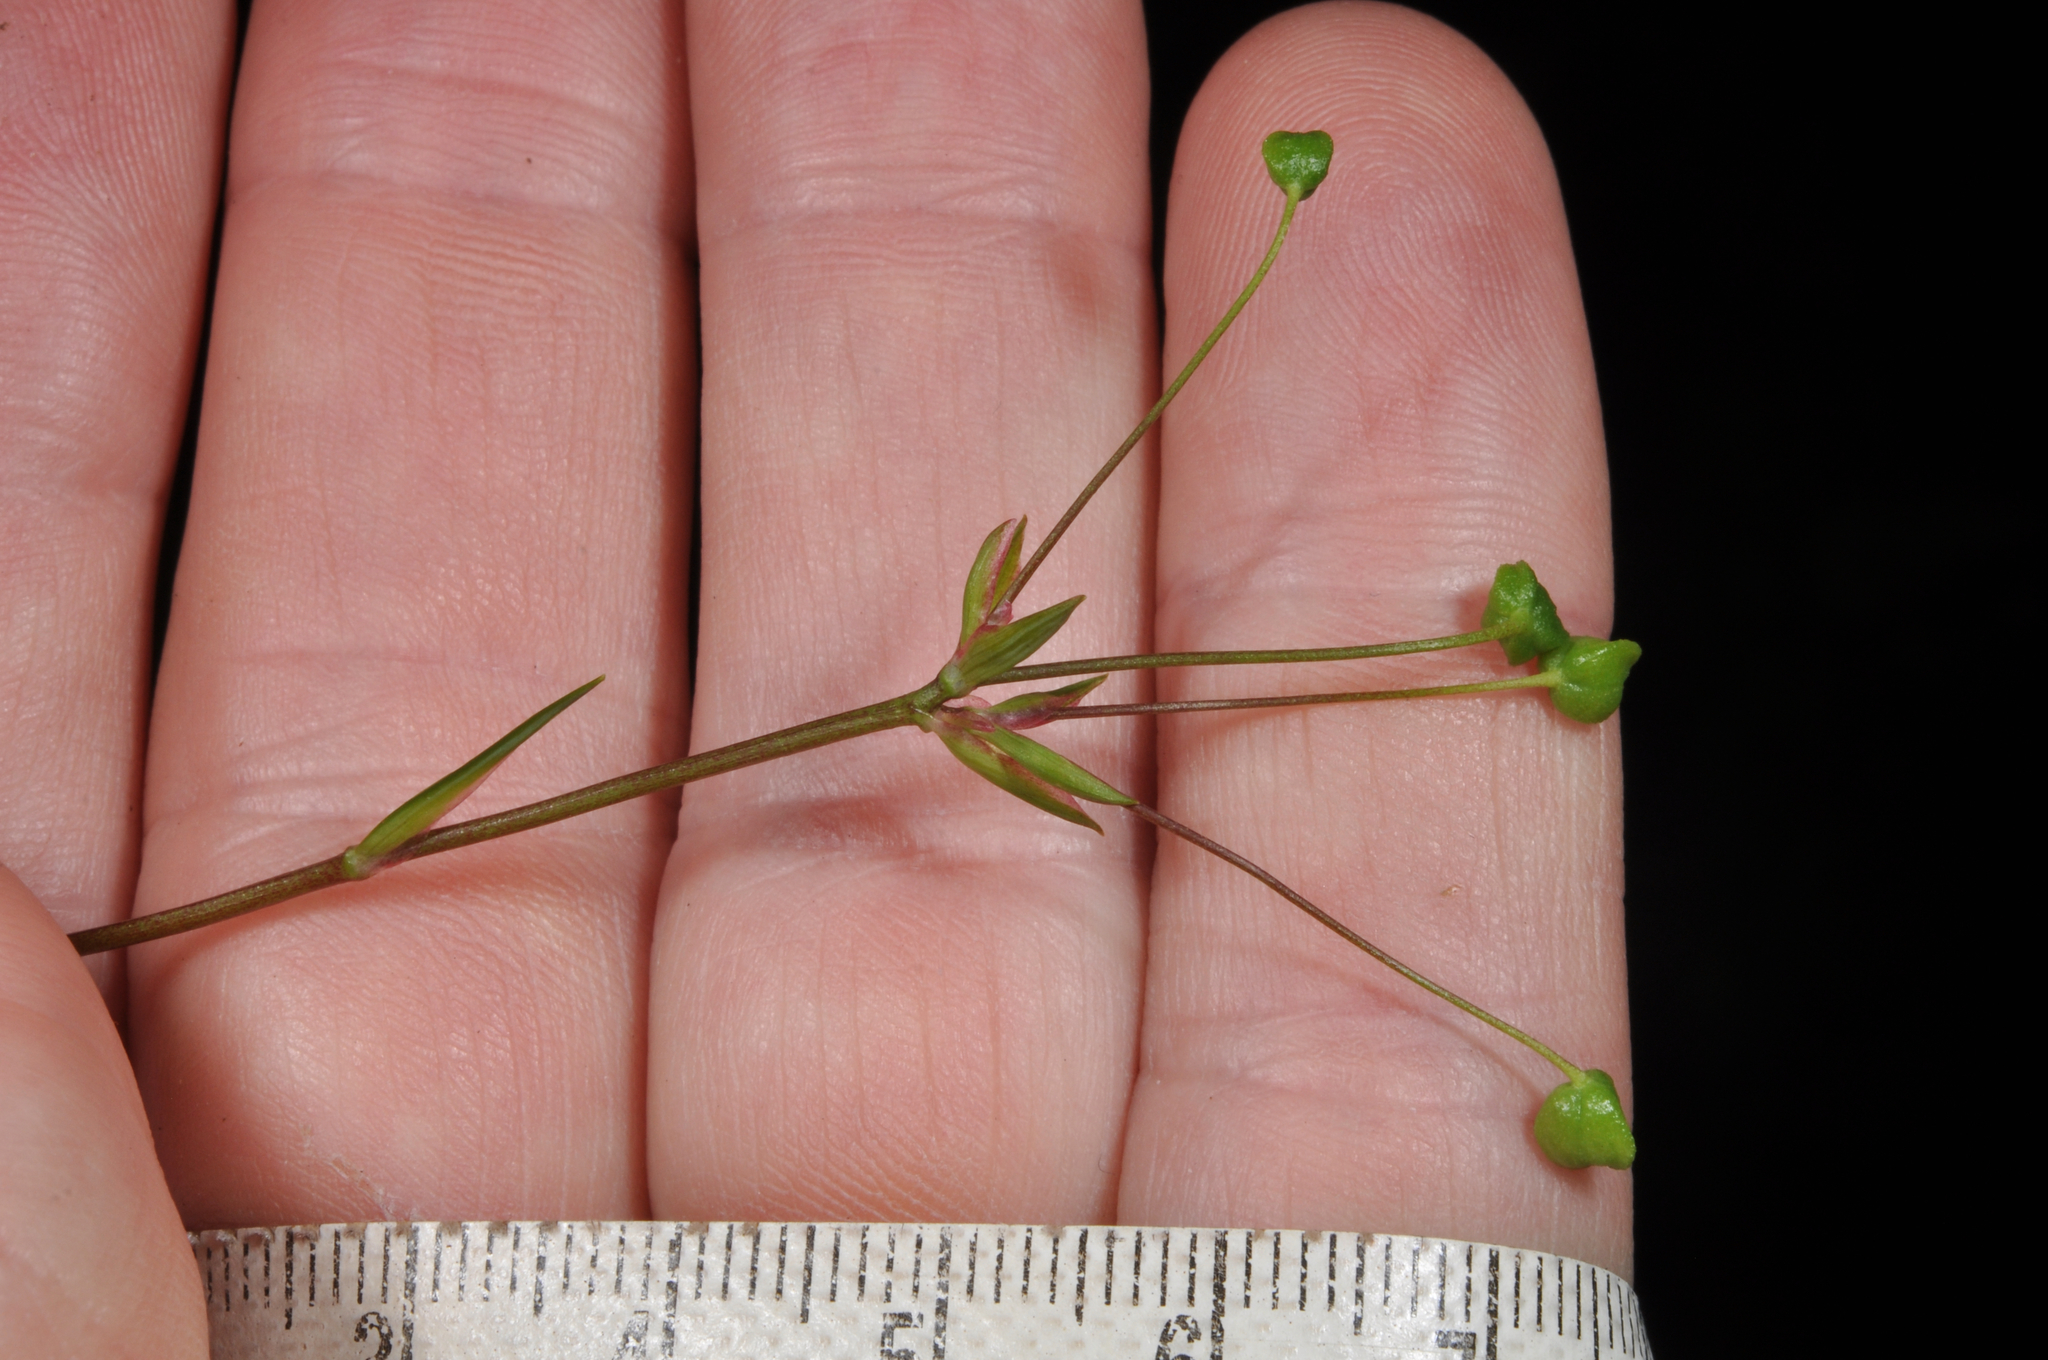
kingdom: Plantae
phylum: Tracheophyta
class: Liliopsida
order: Asparagales
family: Iridaceae
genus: Libertia
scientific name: Libertia micrantha
